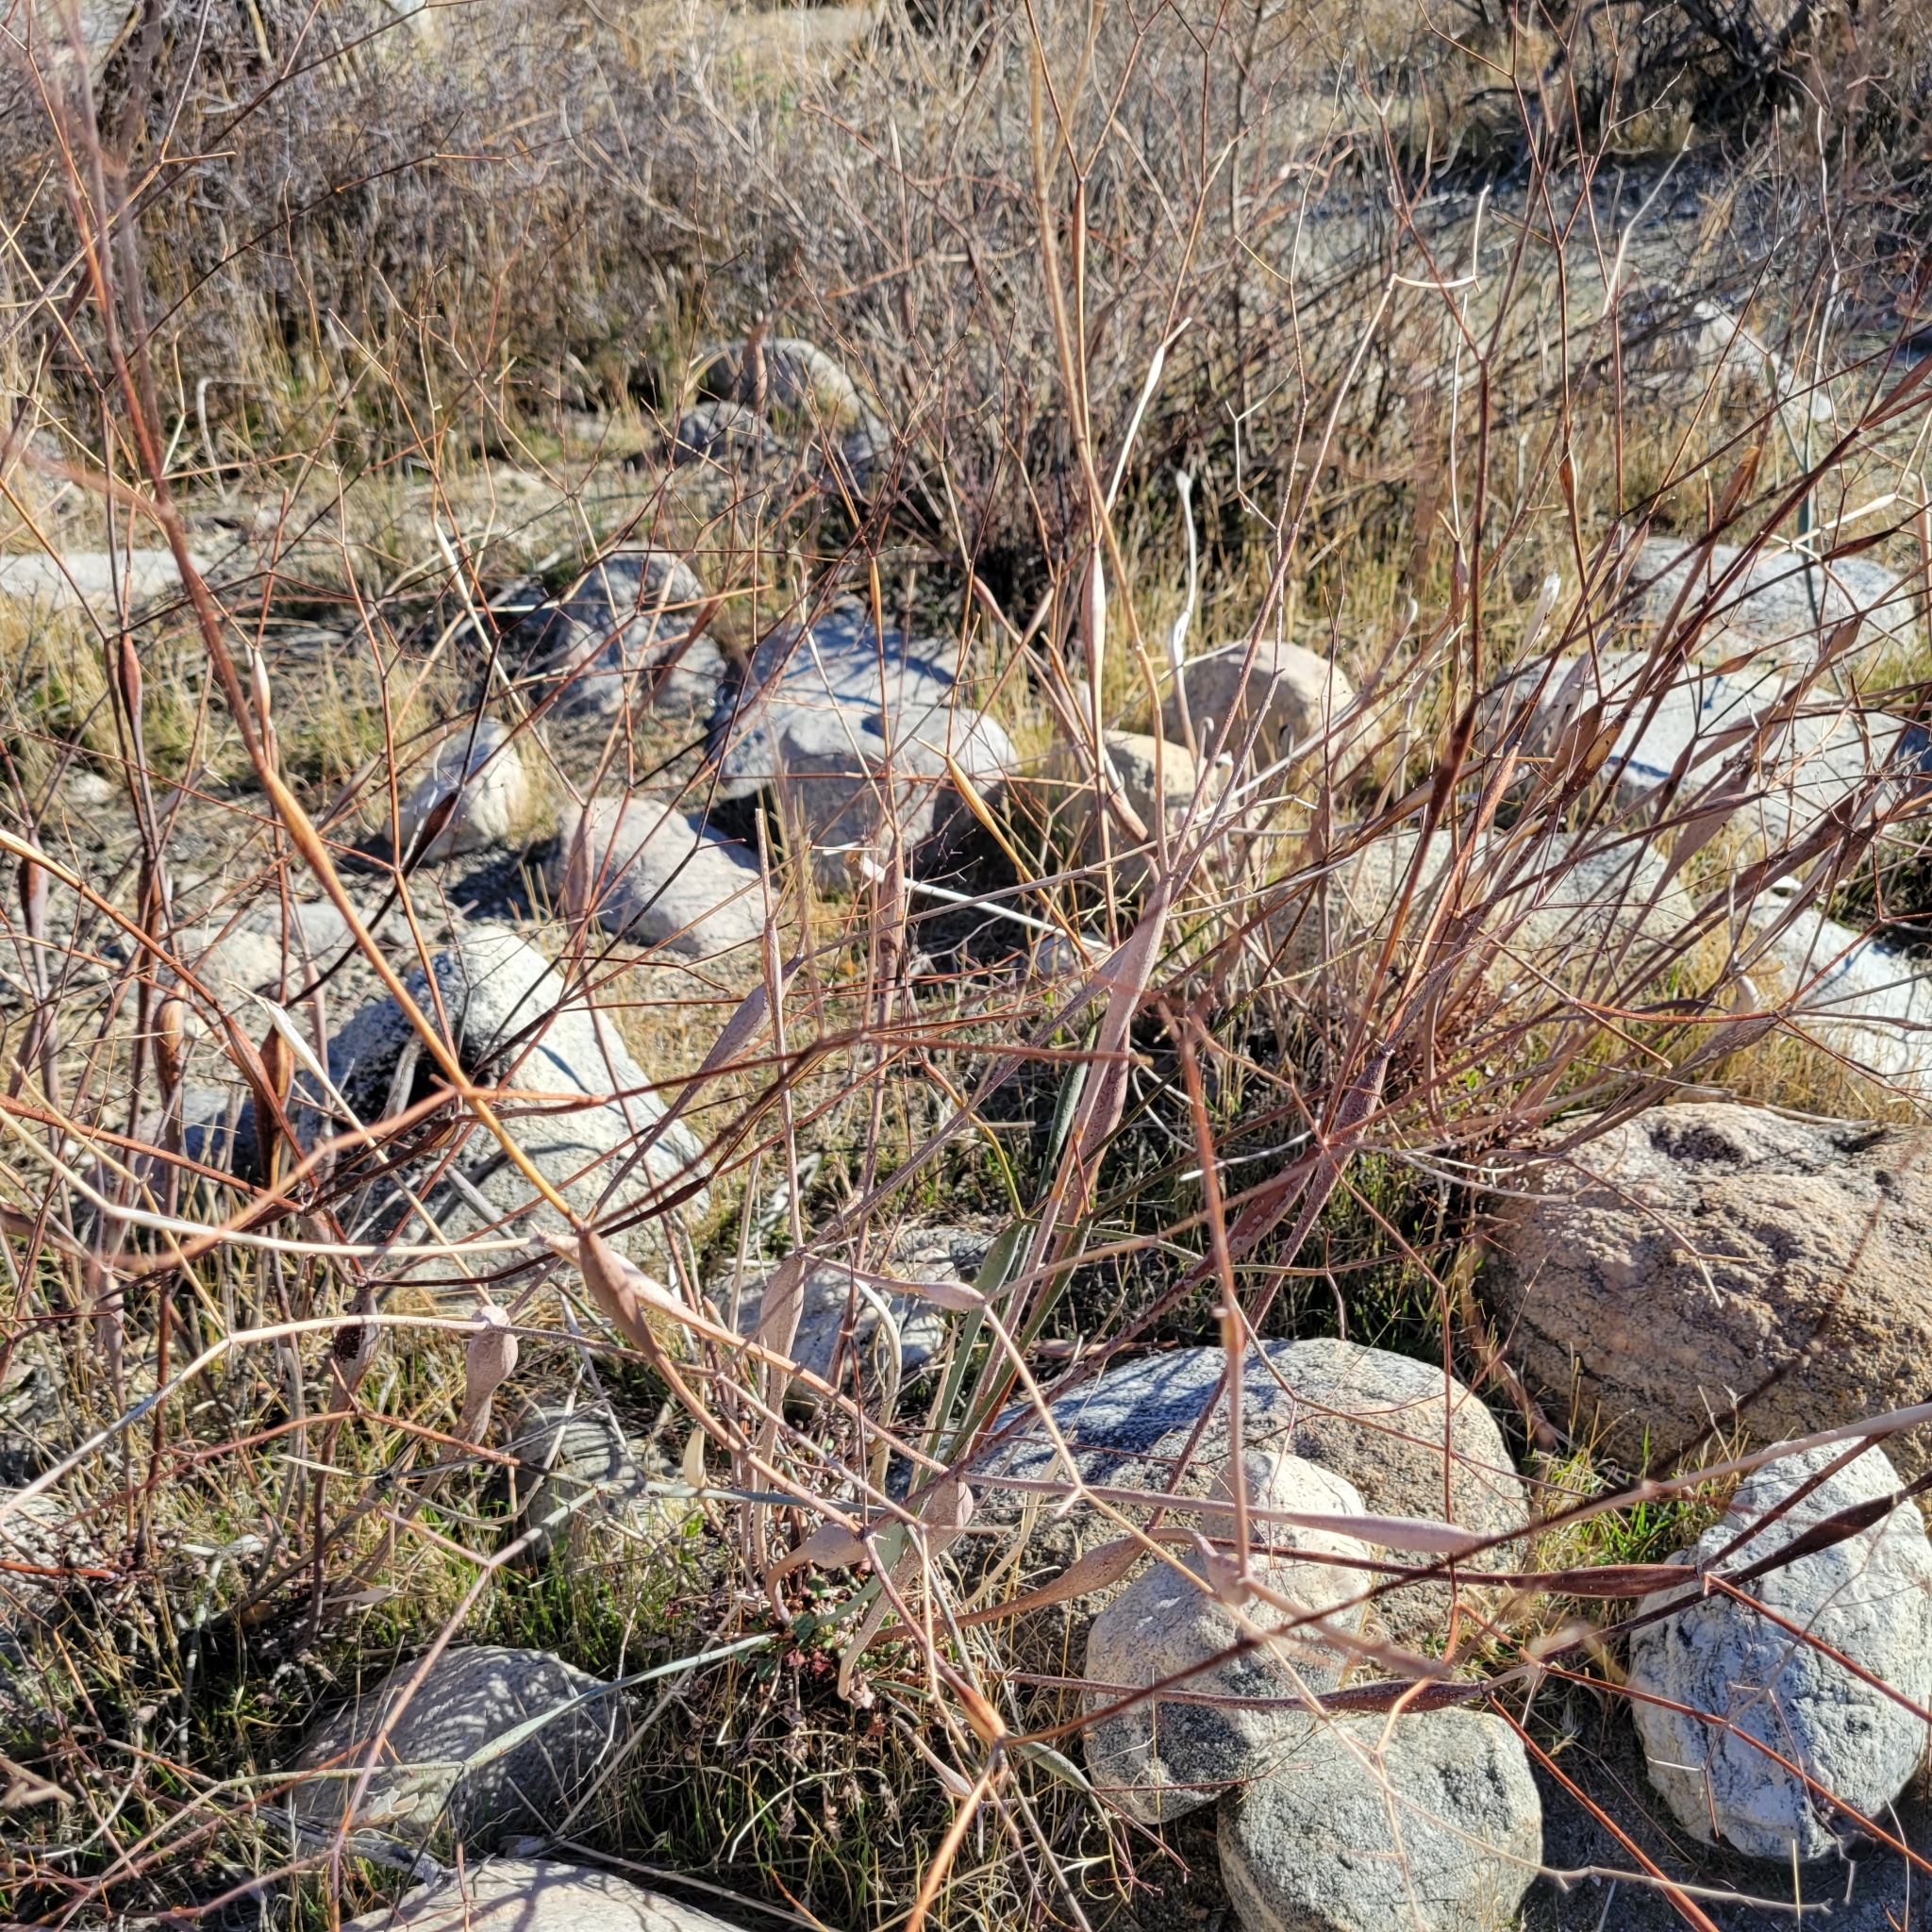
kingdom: Plantae
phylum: Tracheophyta
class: Magnoliopsida
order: Caryophyllales
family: Polygonaceae
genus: Eriogonum
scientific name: Eriogonum inflatum
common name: Desert trumpet
